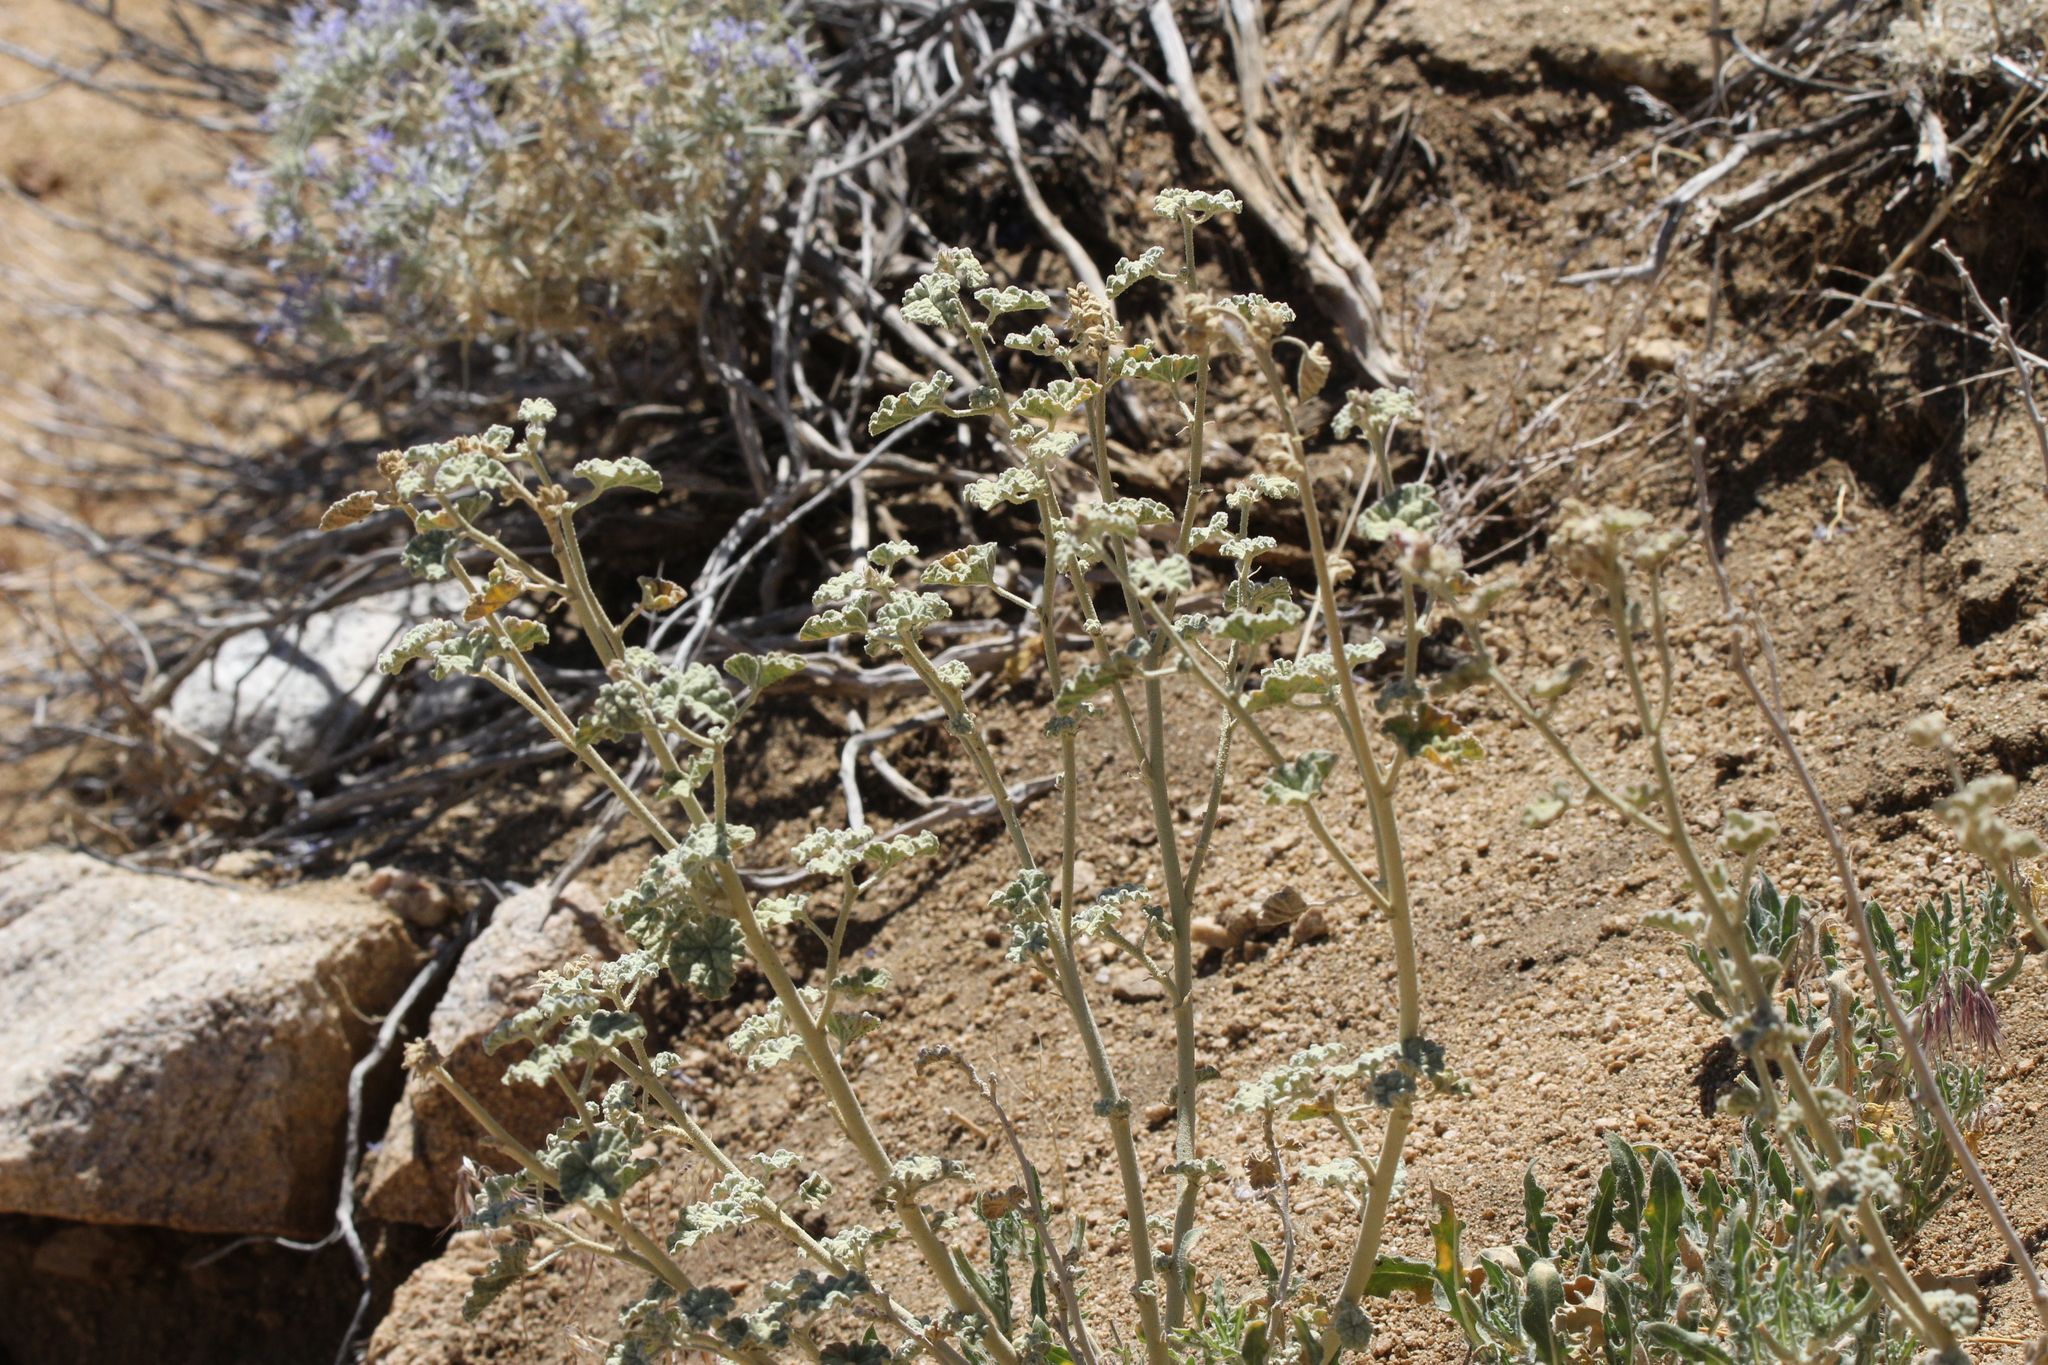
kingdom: Plantae
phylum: Tracheophyta
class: Magnoliopsida
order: Malvales
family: Malvaceae
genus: Sphaeralcea
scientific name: Sphaeralcea ambigua
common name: Apricot globe-mallow
